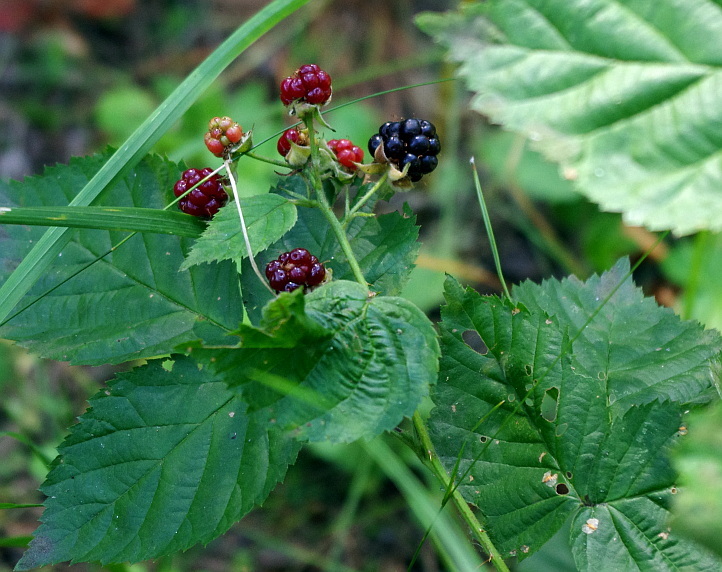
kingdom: Plantae
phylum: Tracheophyta
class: Magnoliopsida
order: Rosales
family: Rosaceae
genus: Rubus
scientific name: Rubus polonicus
